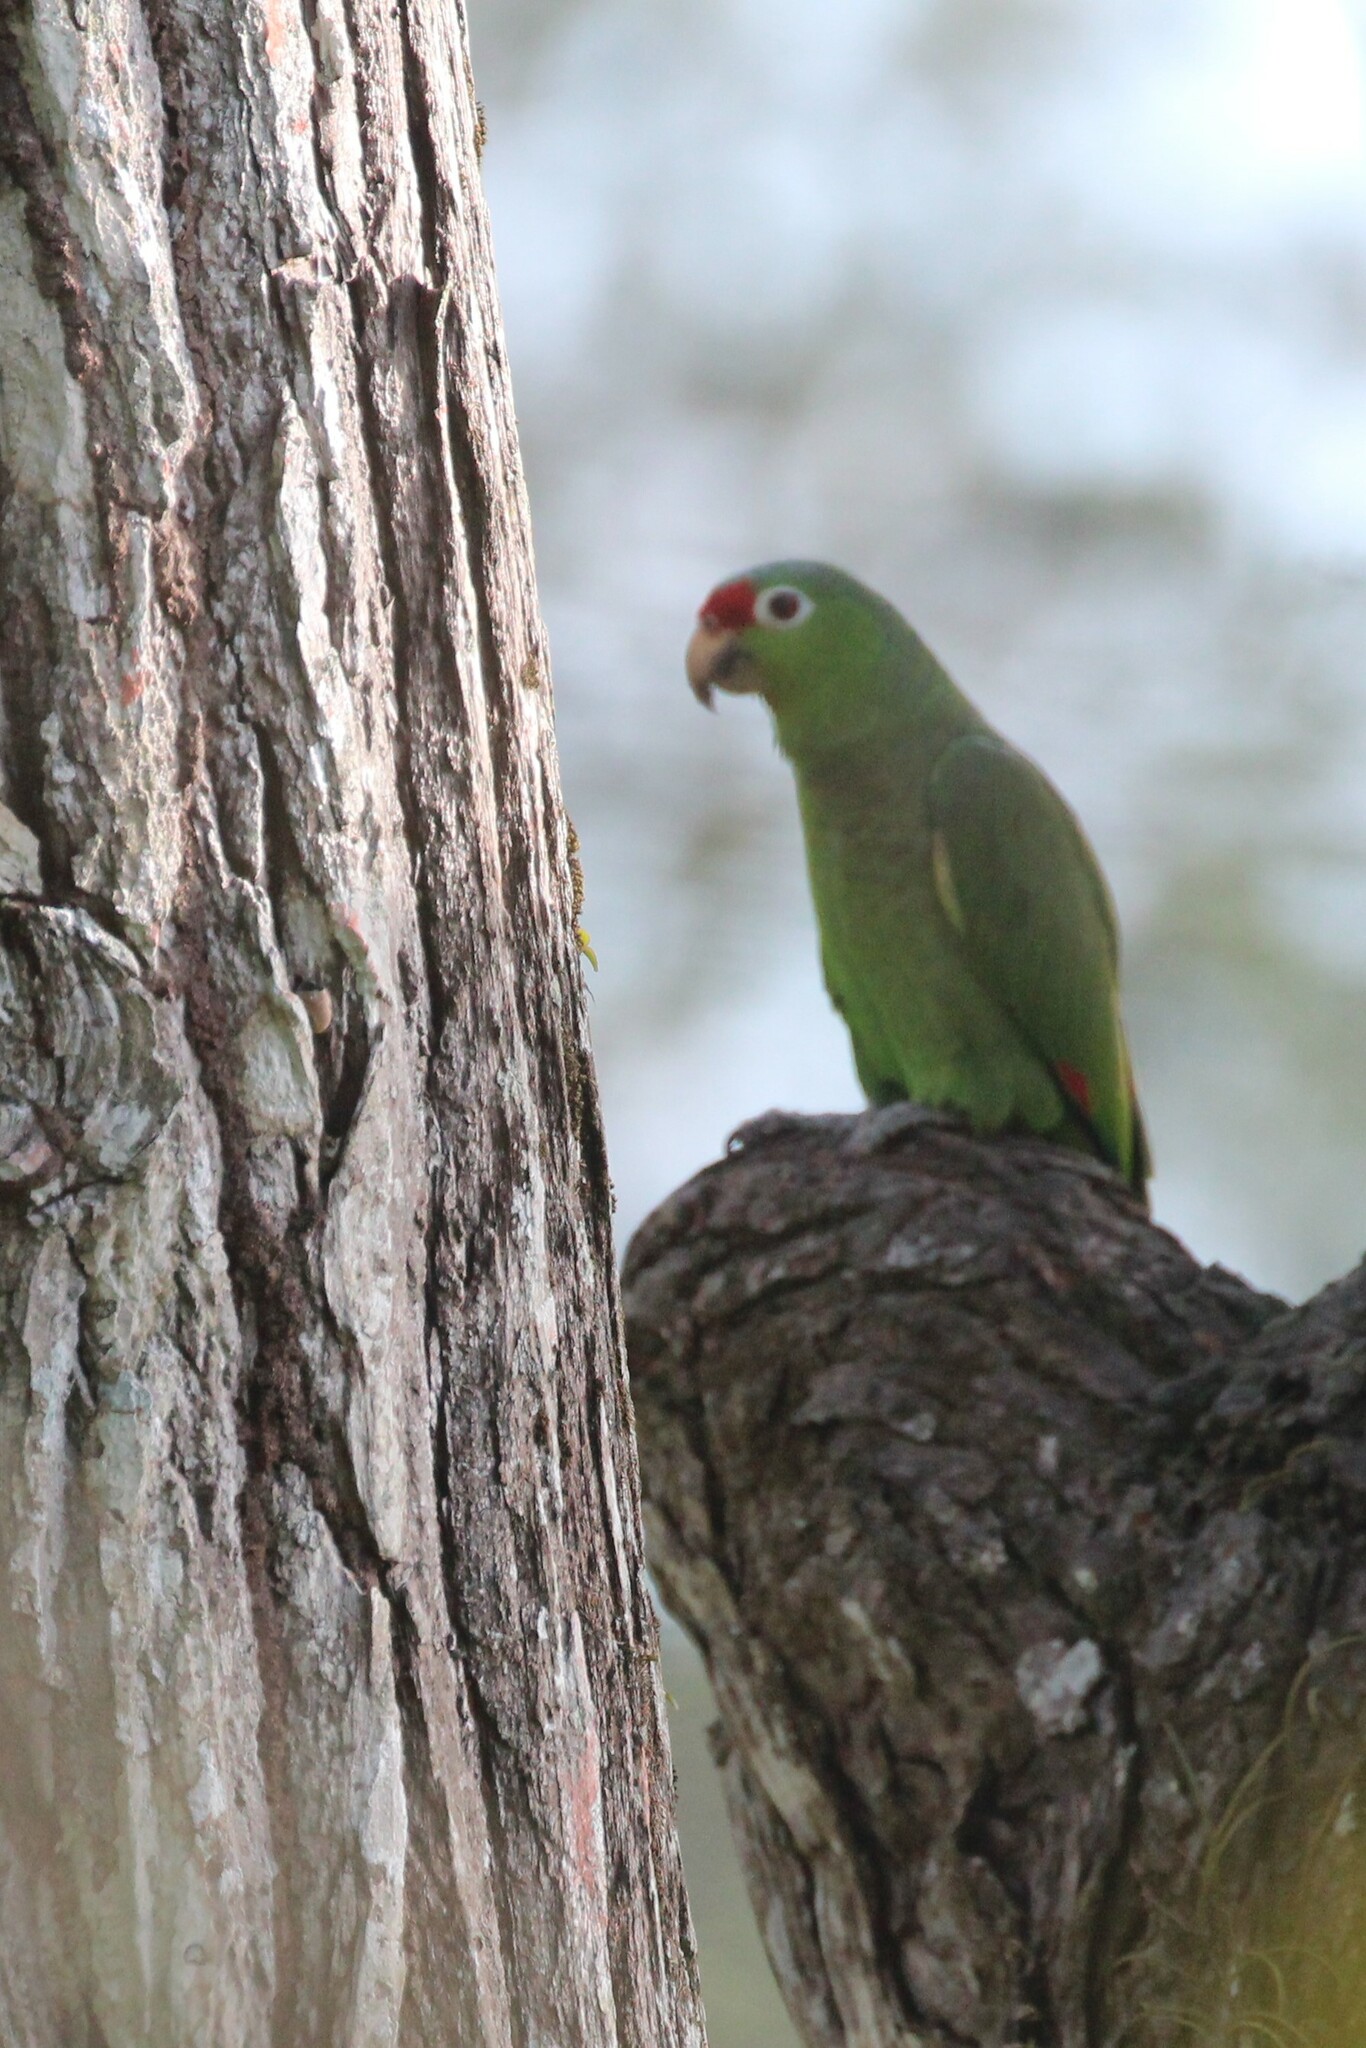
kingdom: Animalia
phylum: Chordata
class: Aves
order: Psittaciformes
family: Psittacidae
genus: Amazona
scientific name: Amazona autumnalis
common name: Red-lored amazon
